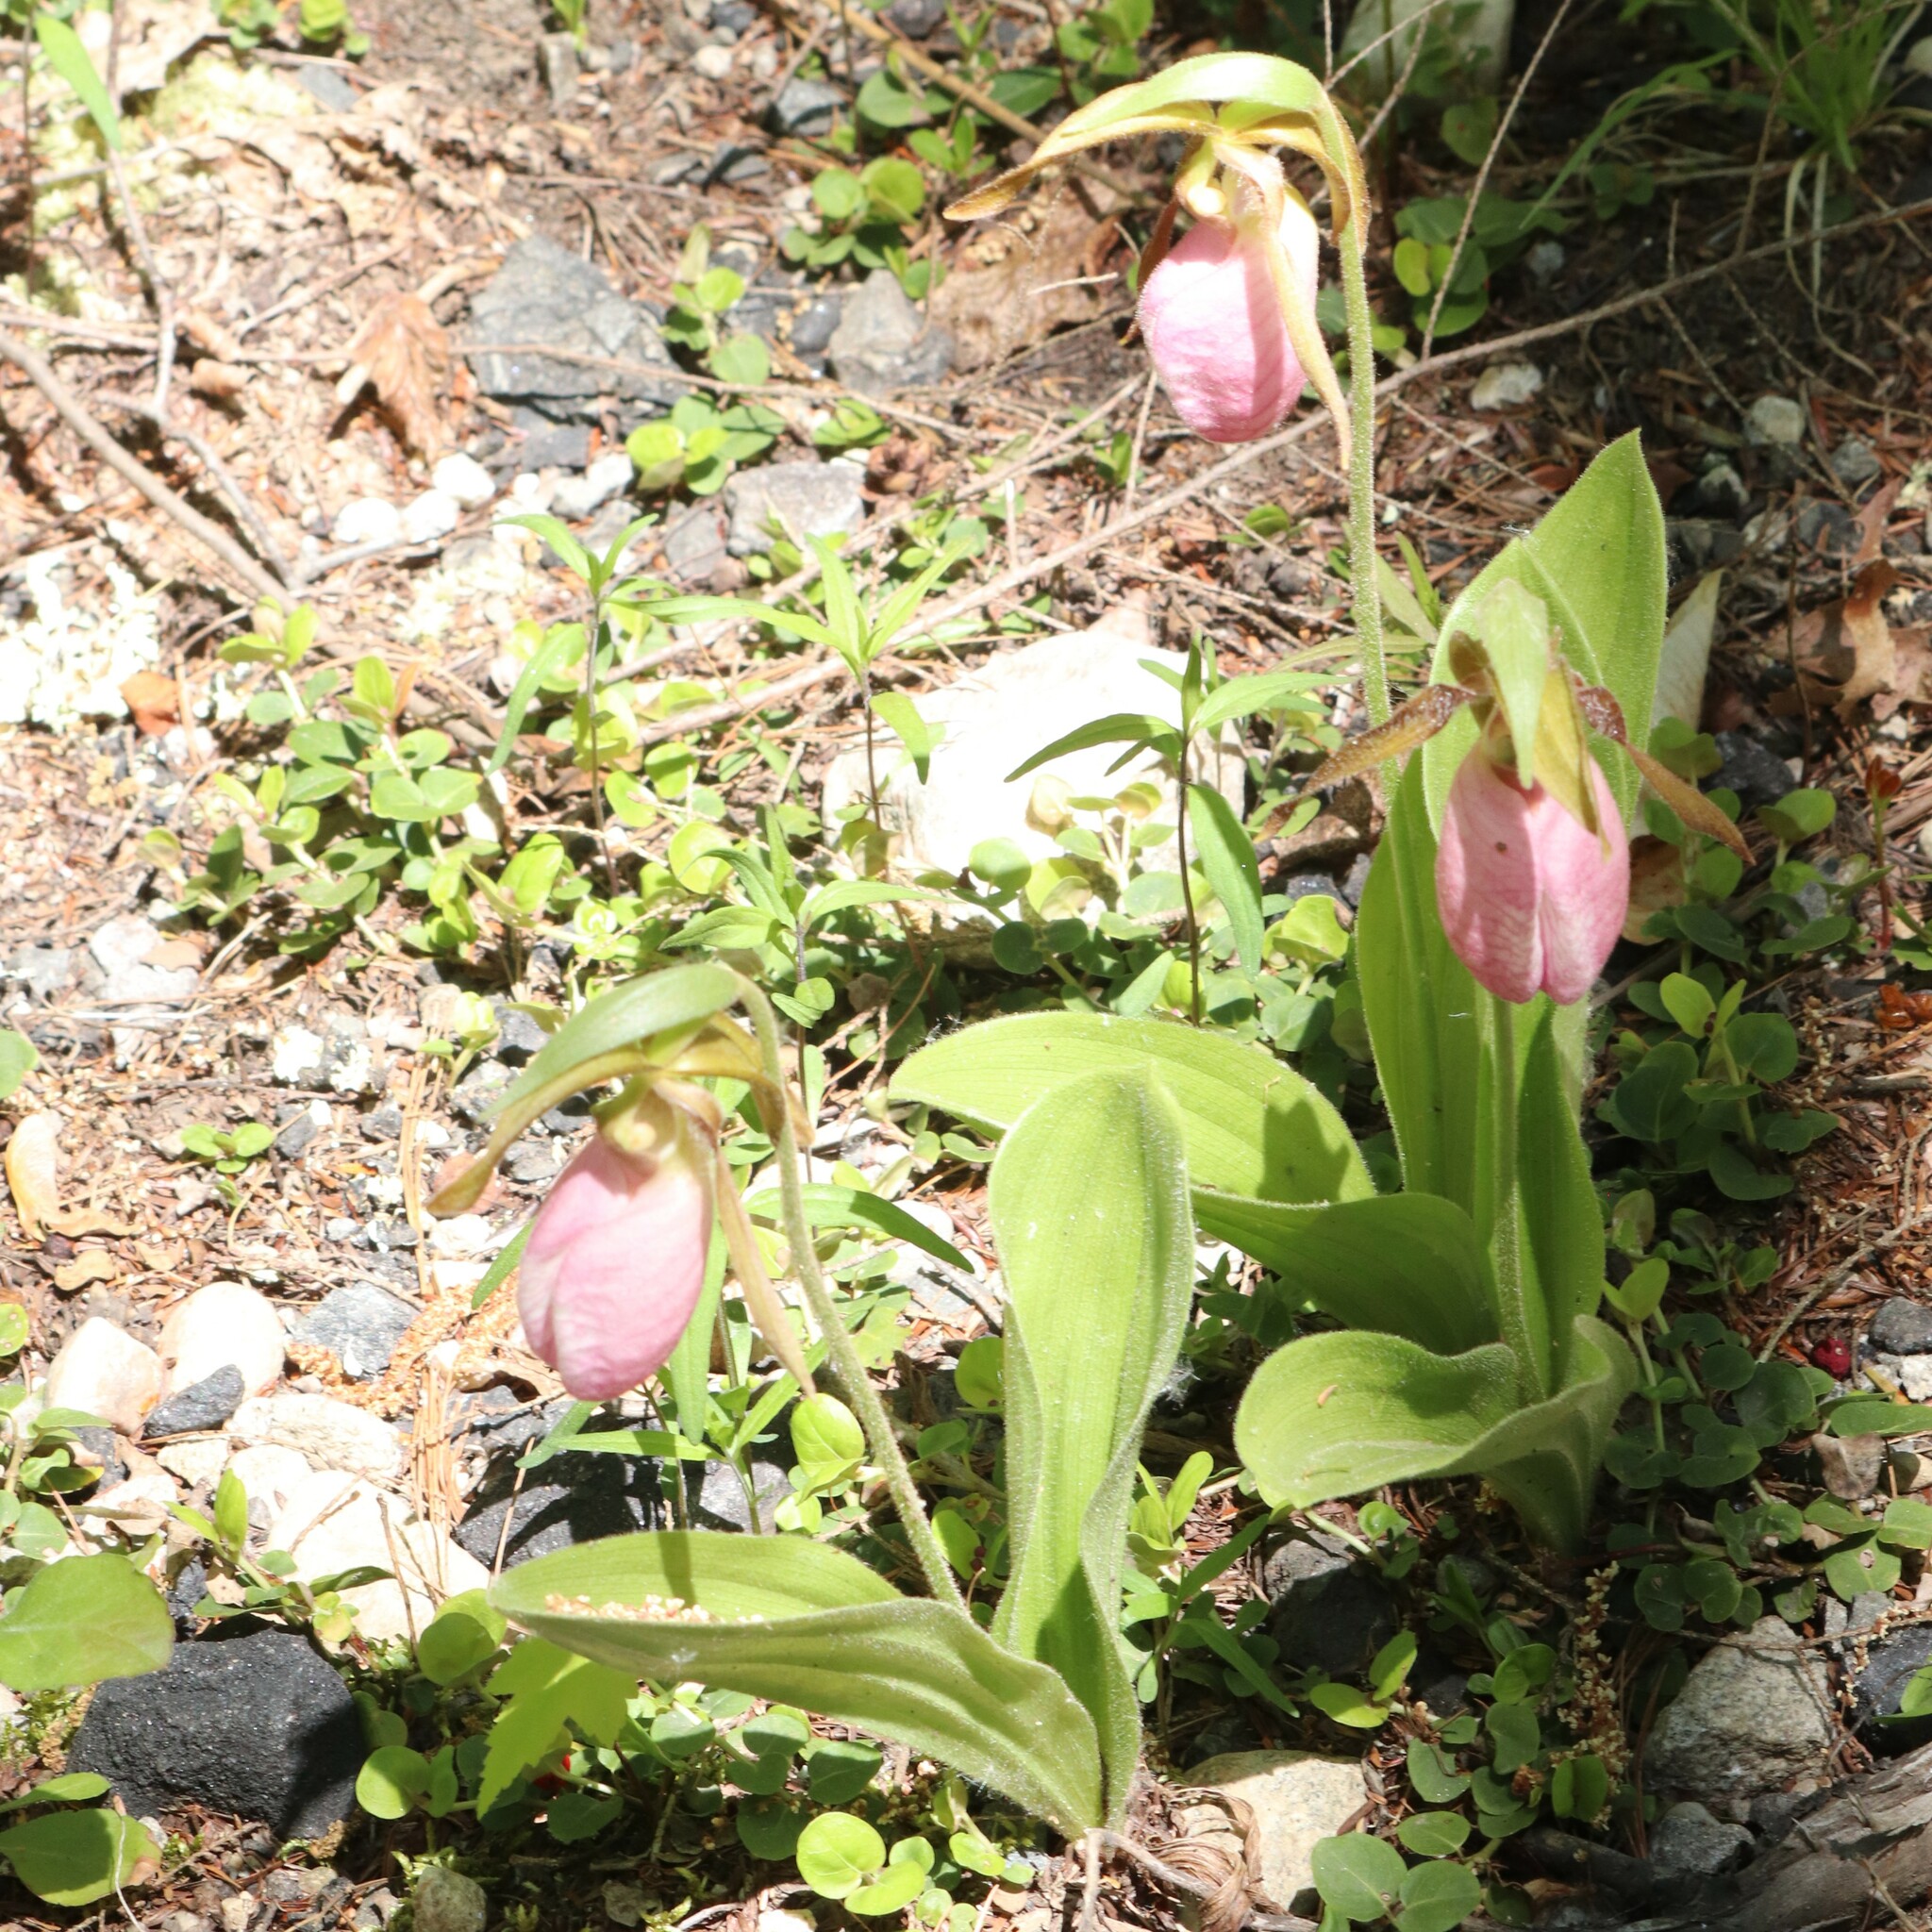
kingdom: Plantae
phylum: Tracheophyta
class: Liliopsida
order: Asparagales
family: Orchidaceae
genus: Cypripedium
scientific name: Cypripedium acaule
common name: Pink lady's-slipper
